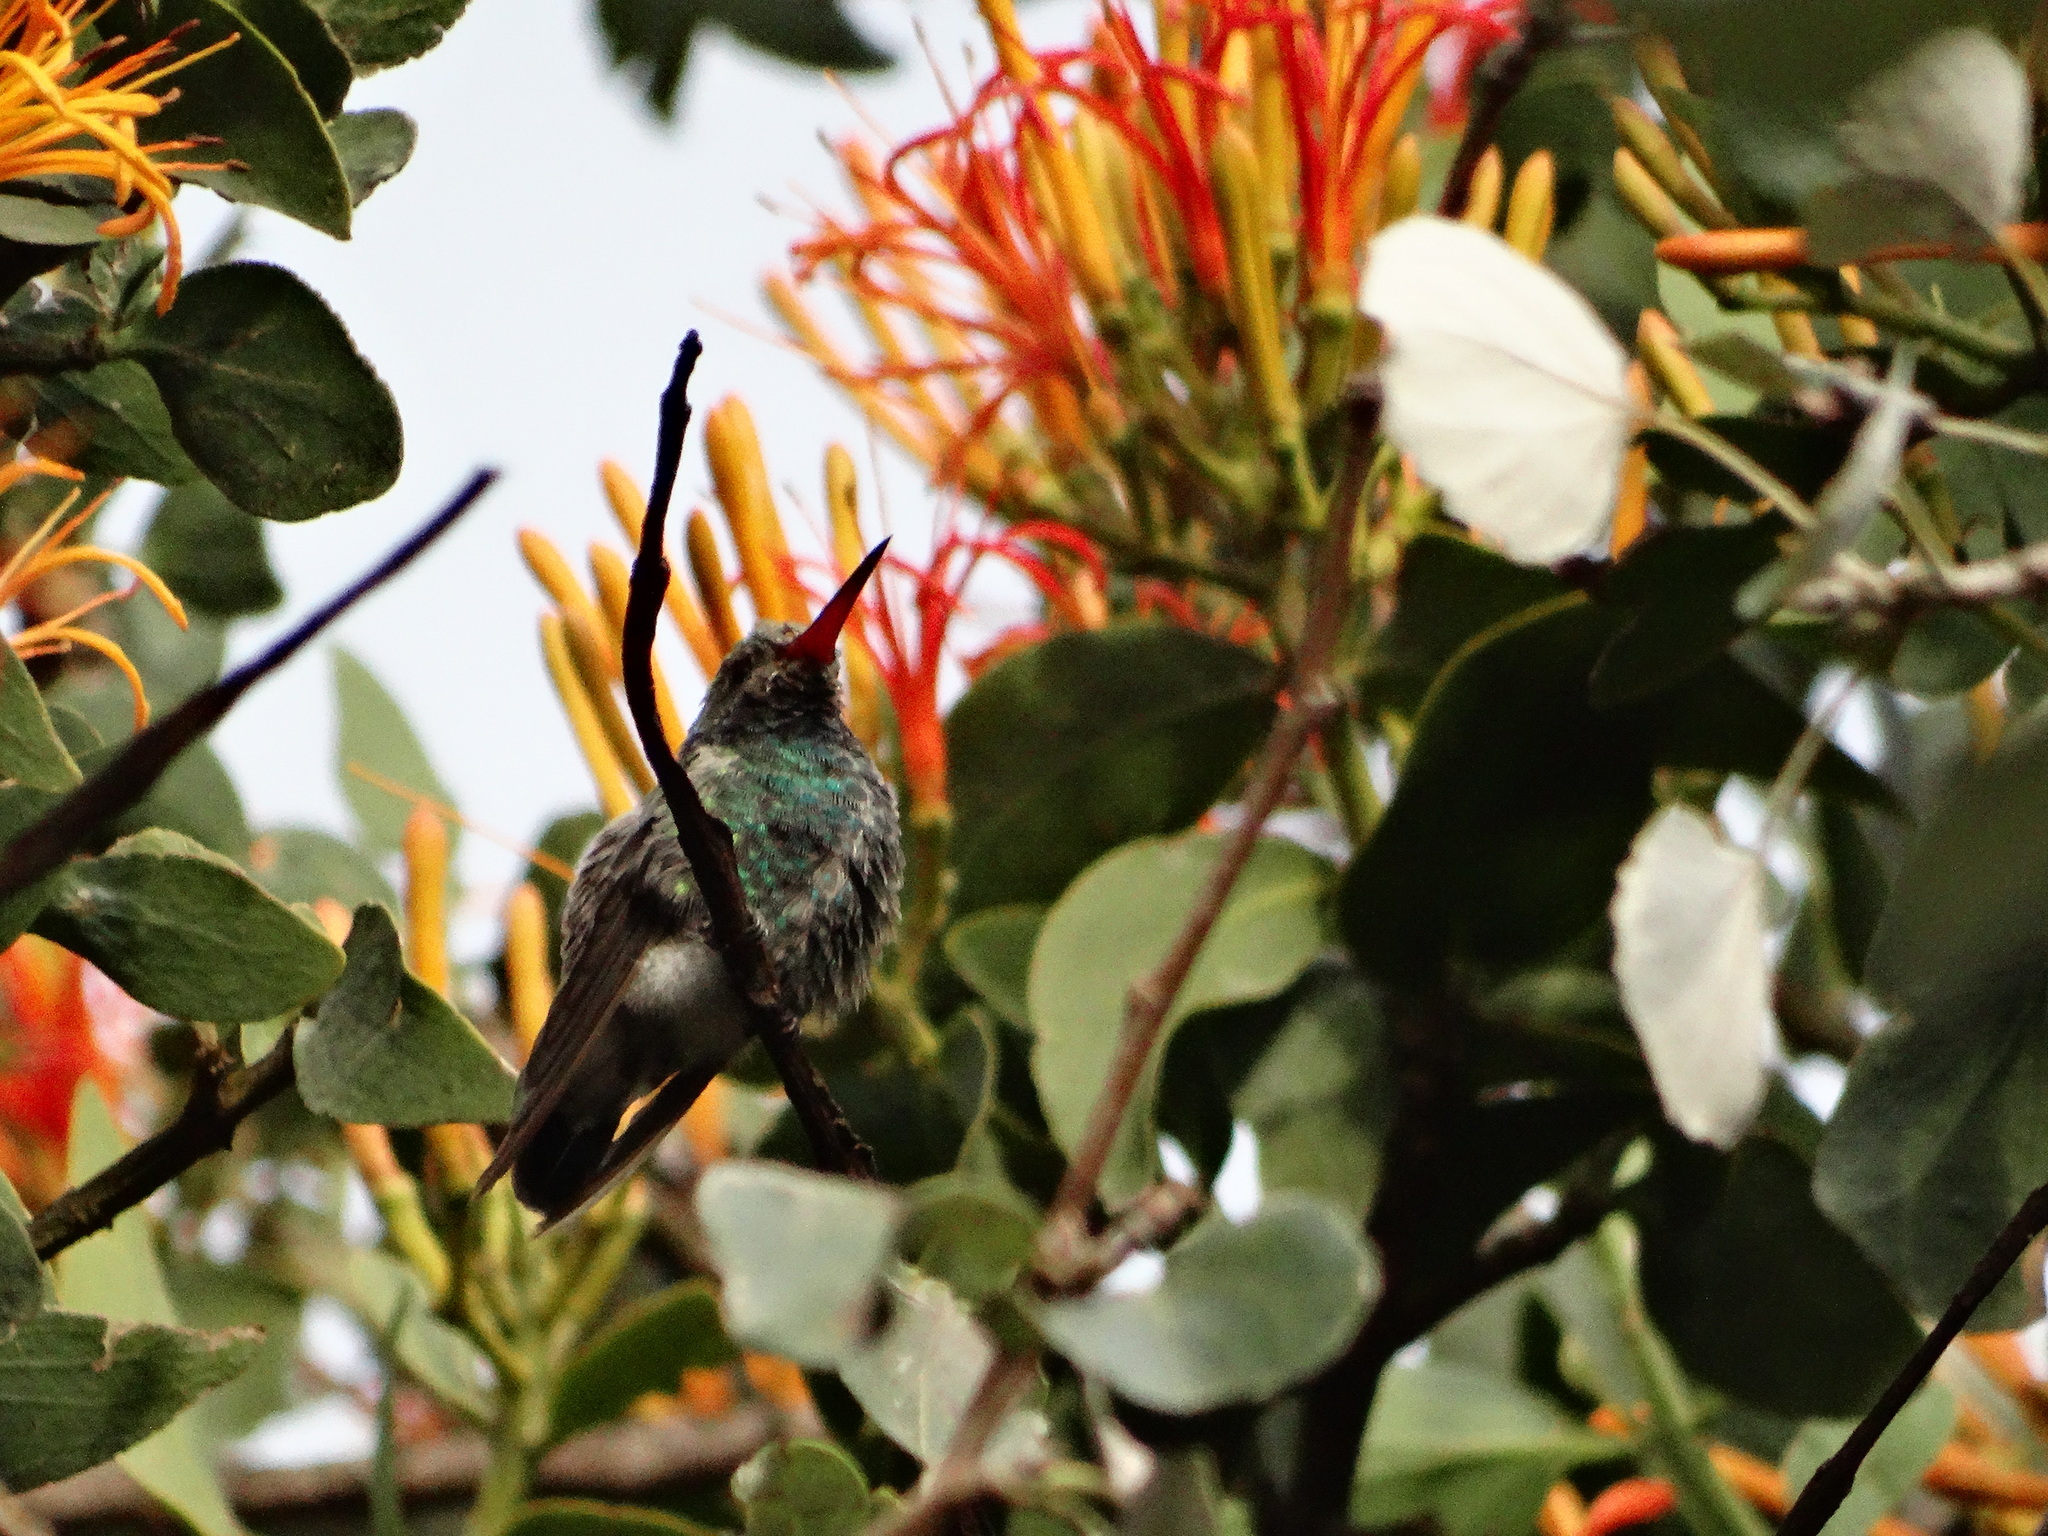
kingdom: Animalia
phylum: Chordata
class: Aves
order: Apodiformes
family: Trochilidae
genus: Cynanthus
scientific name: Cynanthus latirostris
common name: Broad-billed hummingbird
